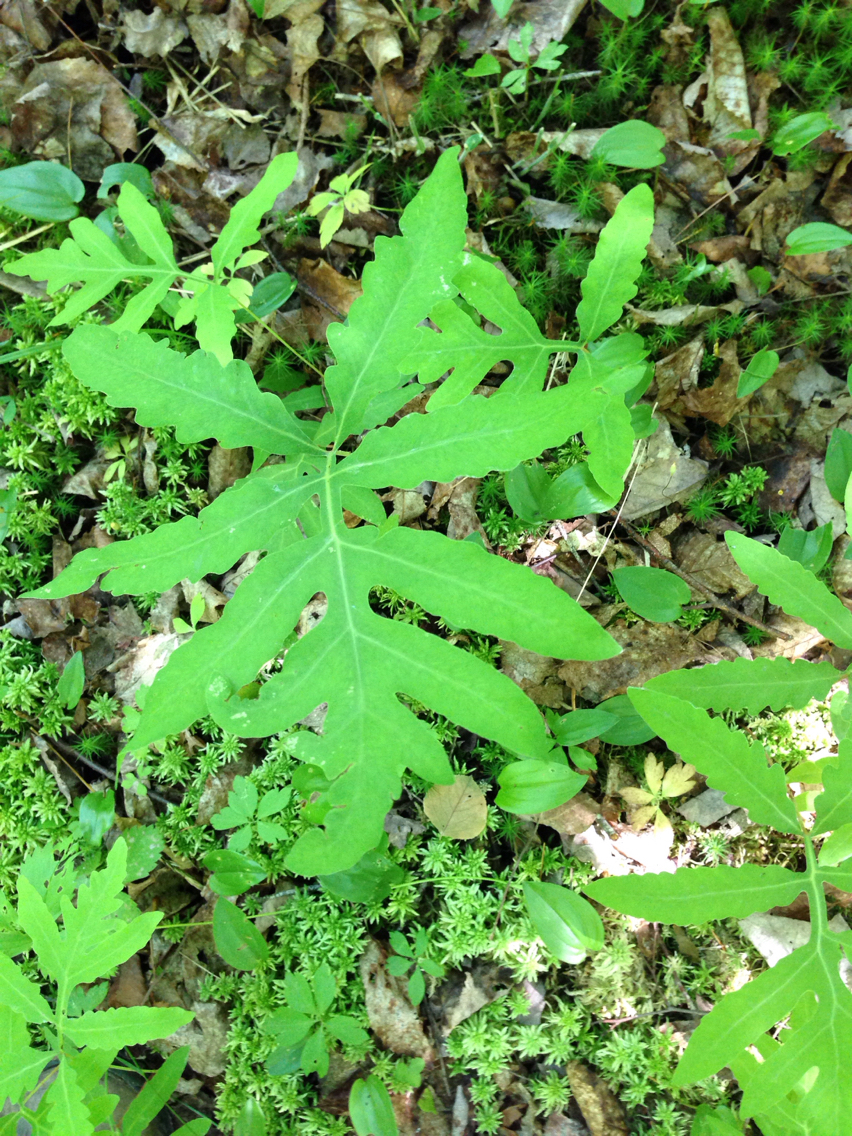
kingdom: Plantae
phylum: Tracheophyta
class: Polypodiopsida
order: Polypodiales
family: Onocleaceae
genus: Onoclea
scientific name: Onoclea sensibilis
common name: Sensitive fern
